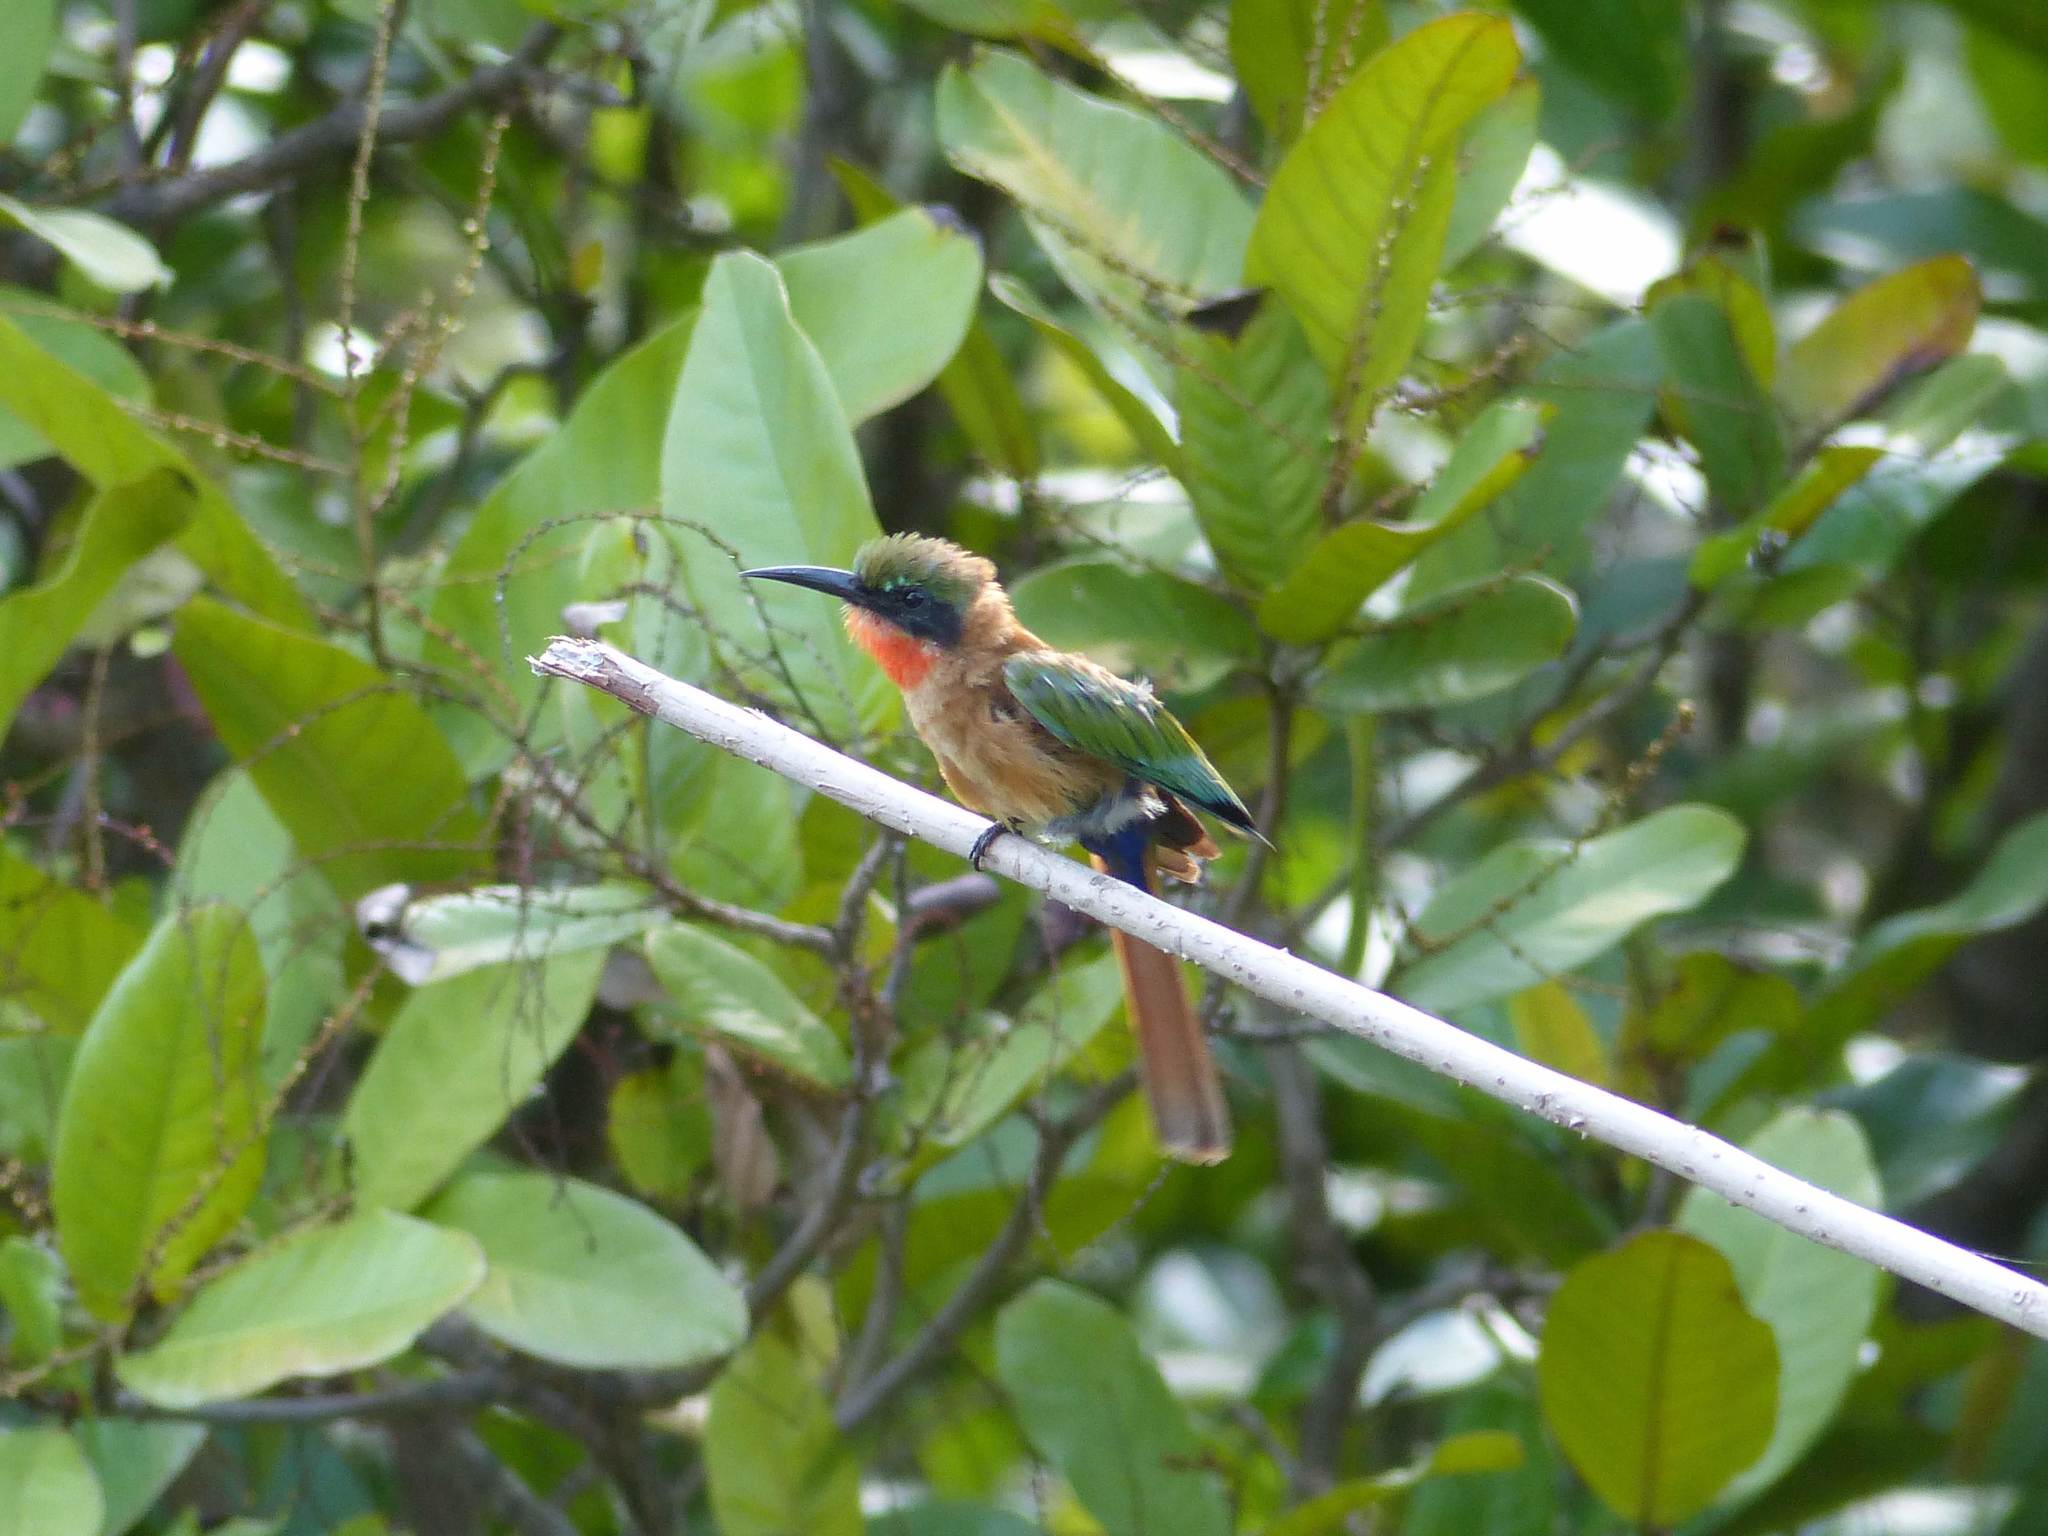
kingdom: Animalia
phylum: Chordata
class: Aves
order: Coraciiformes
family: Meropidae
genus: Merops
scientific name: Merops bulocki
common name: Red-throated bee-eater
